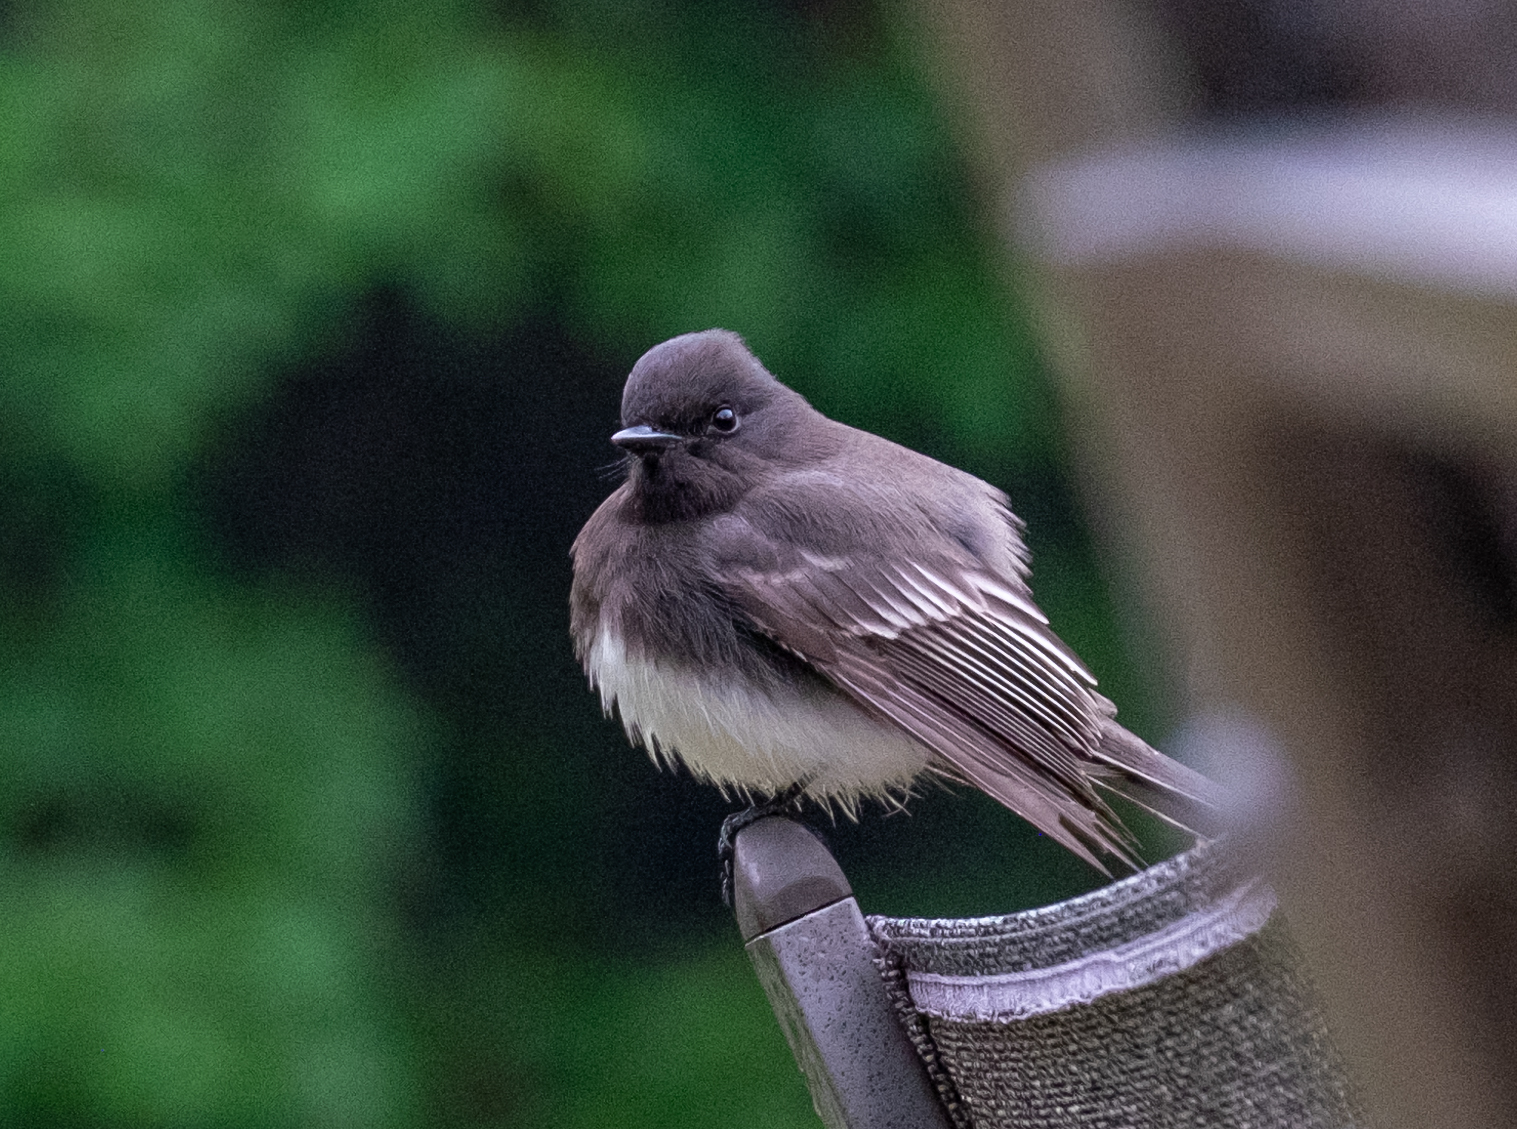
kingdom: Animalia
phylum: Chordata
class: Aves
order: Passeriformes
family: Tyrannidae
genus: Sayornis
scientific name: Sayornis nigricans
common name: Black phoebe
